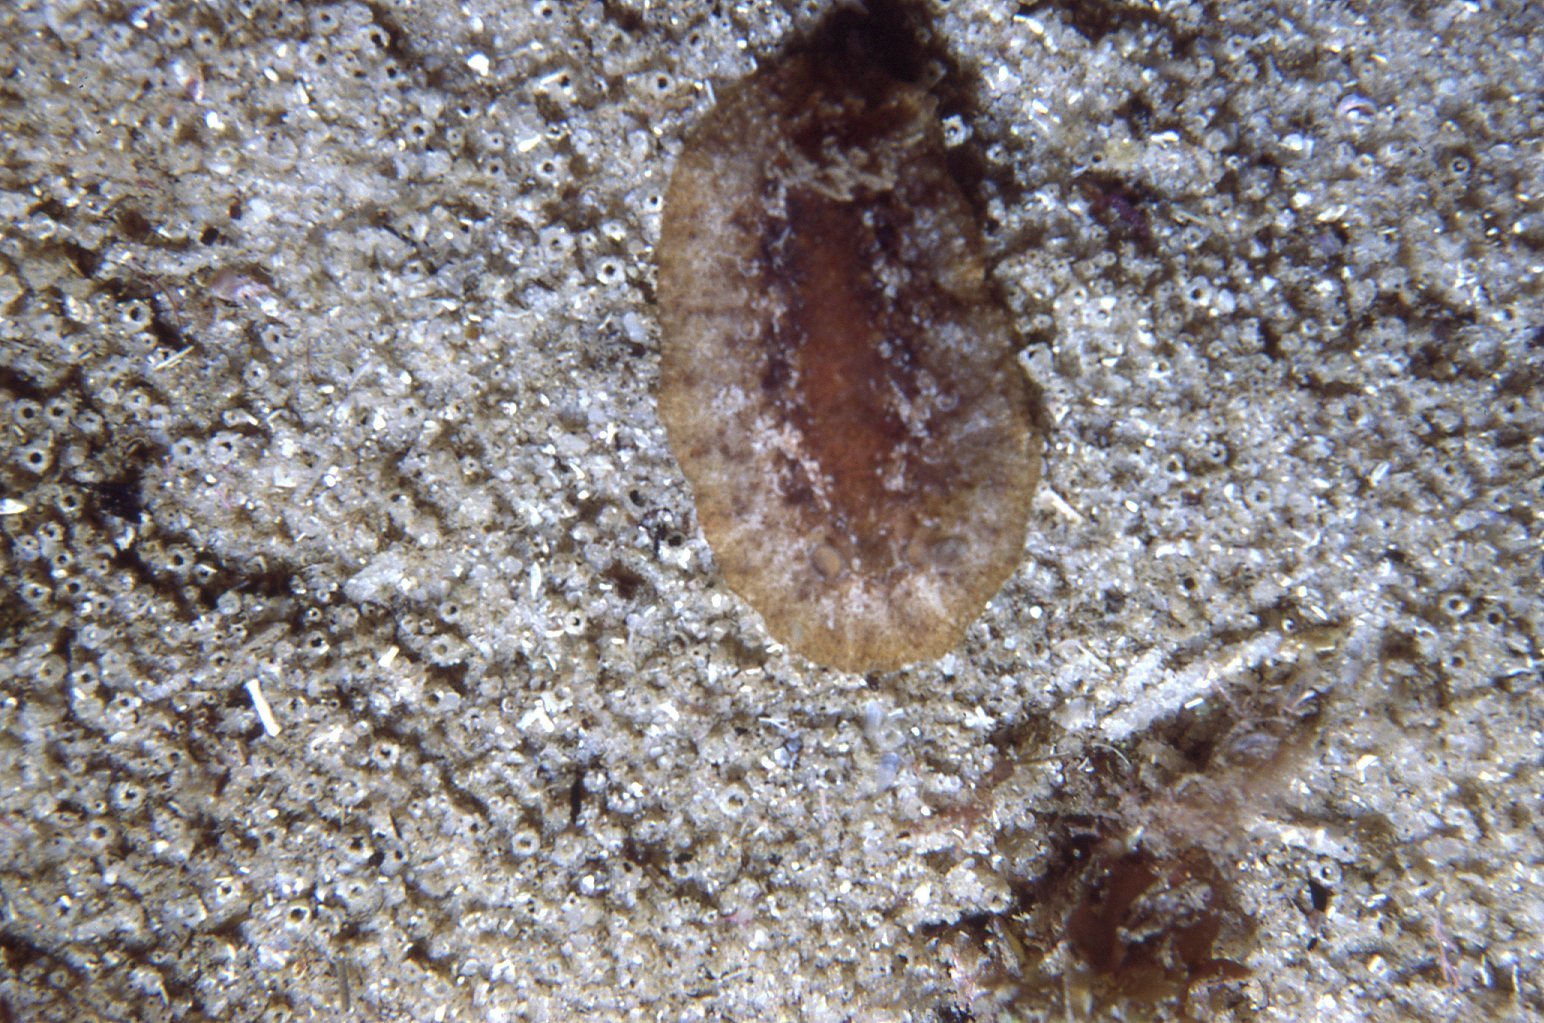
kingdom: Animalia
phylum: Mollusca
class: Gastropoda
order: Nudibranchia
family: Discodorididae
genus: Carminodoris
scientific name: Carminodoris nodulosa
